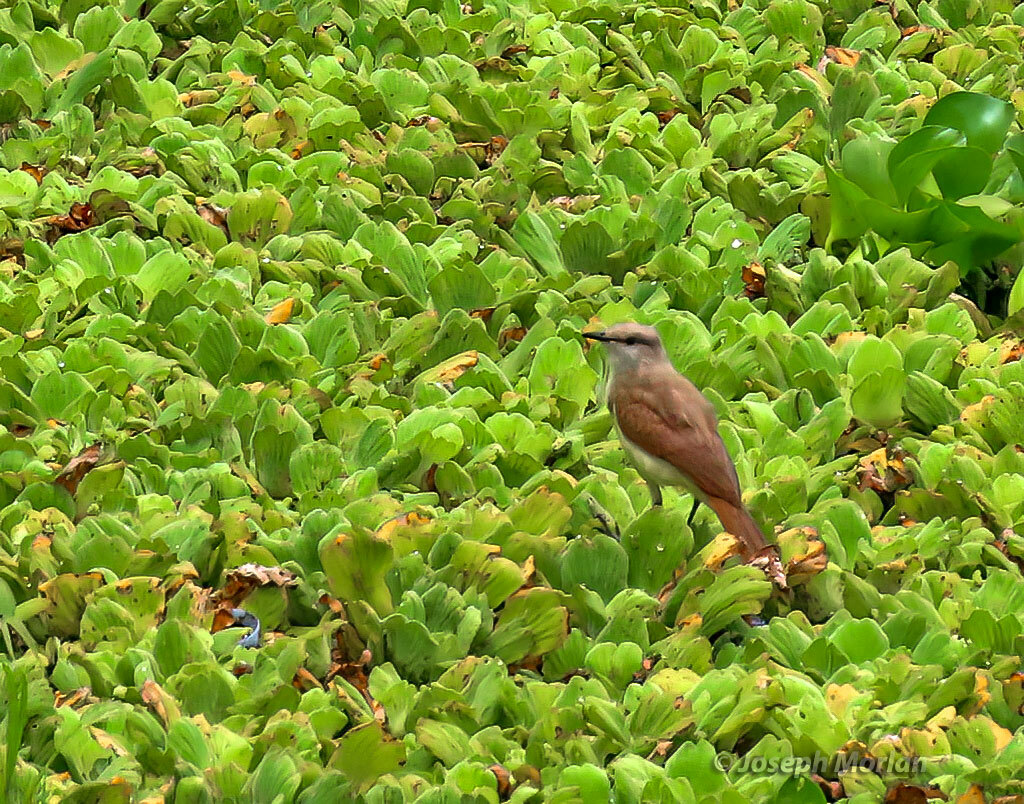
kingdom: Animalia
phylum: Chordata
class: Aves
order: Passeriformes
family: Tyrannidae
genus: Machetornis
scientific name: Machetornis rixosa
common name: Cattle tyrant
